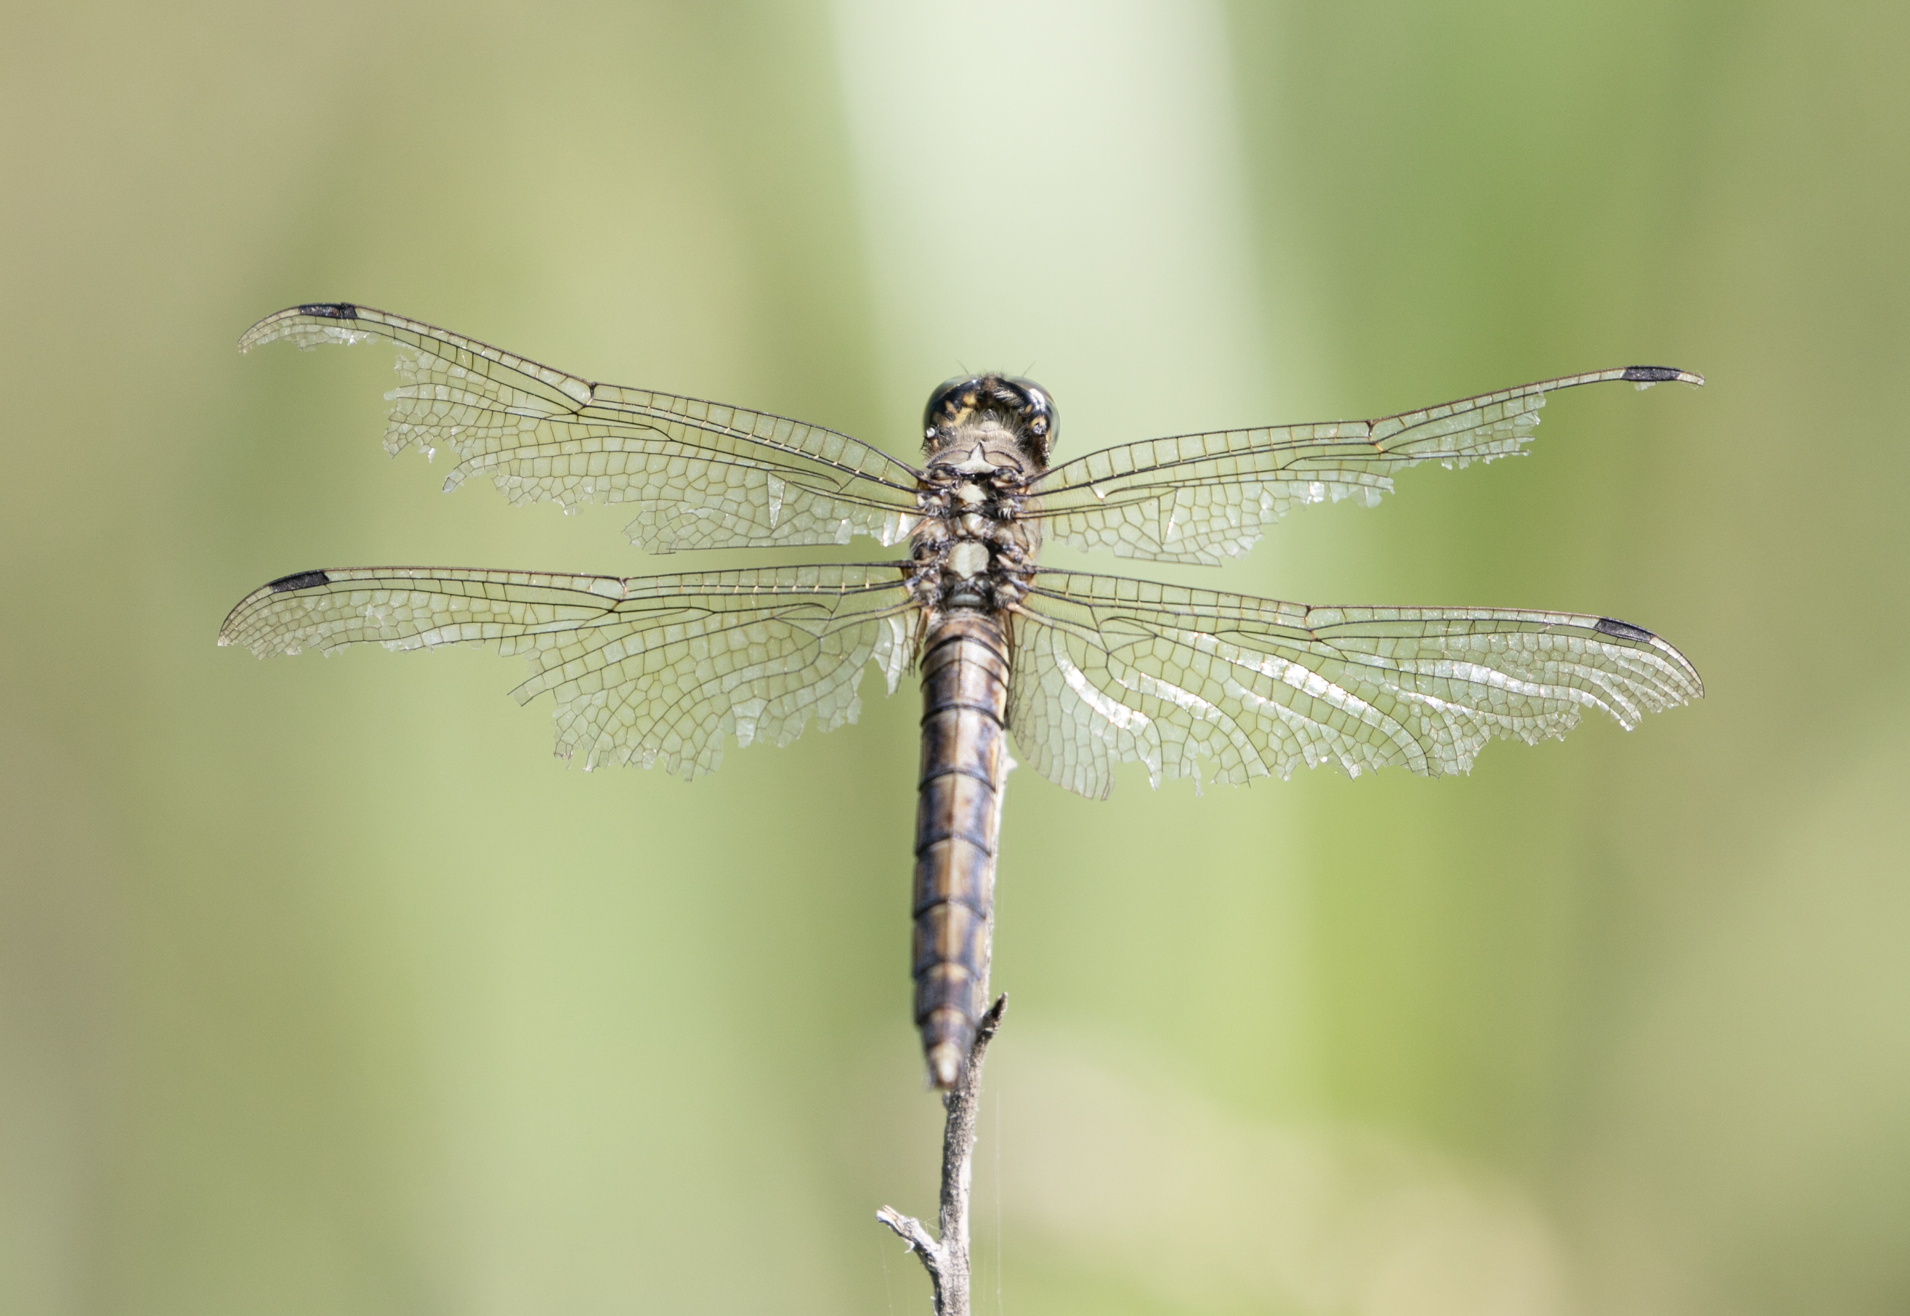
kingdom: Animalia
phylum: Arthropoda
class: Insecta
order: Odonata
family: Libellulidae
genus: Orthetrum
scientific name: Orthetrum cancellatum
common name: Black-tailed skimmer
